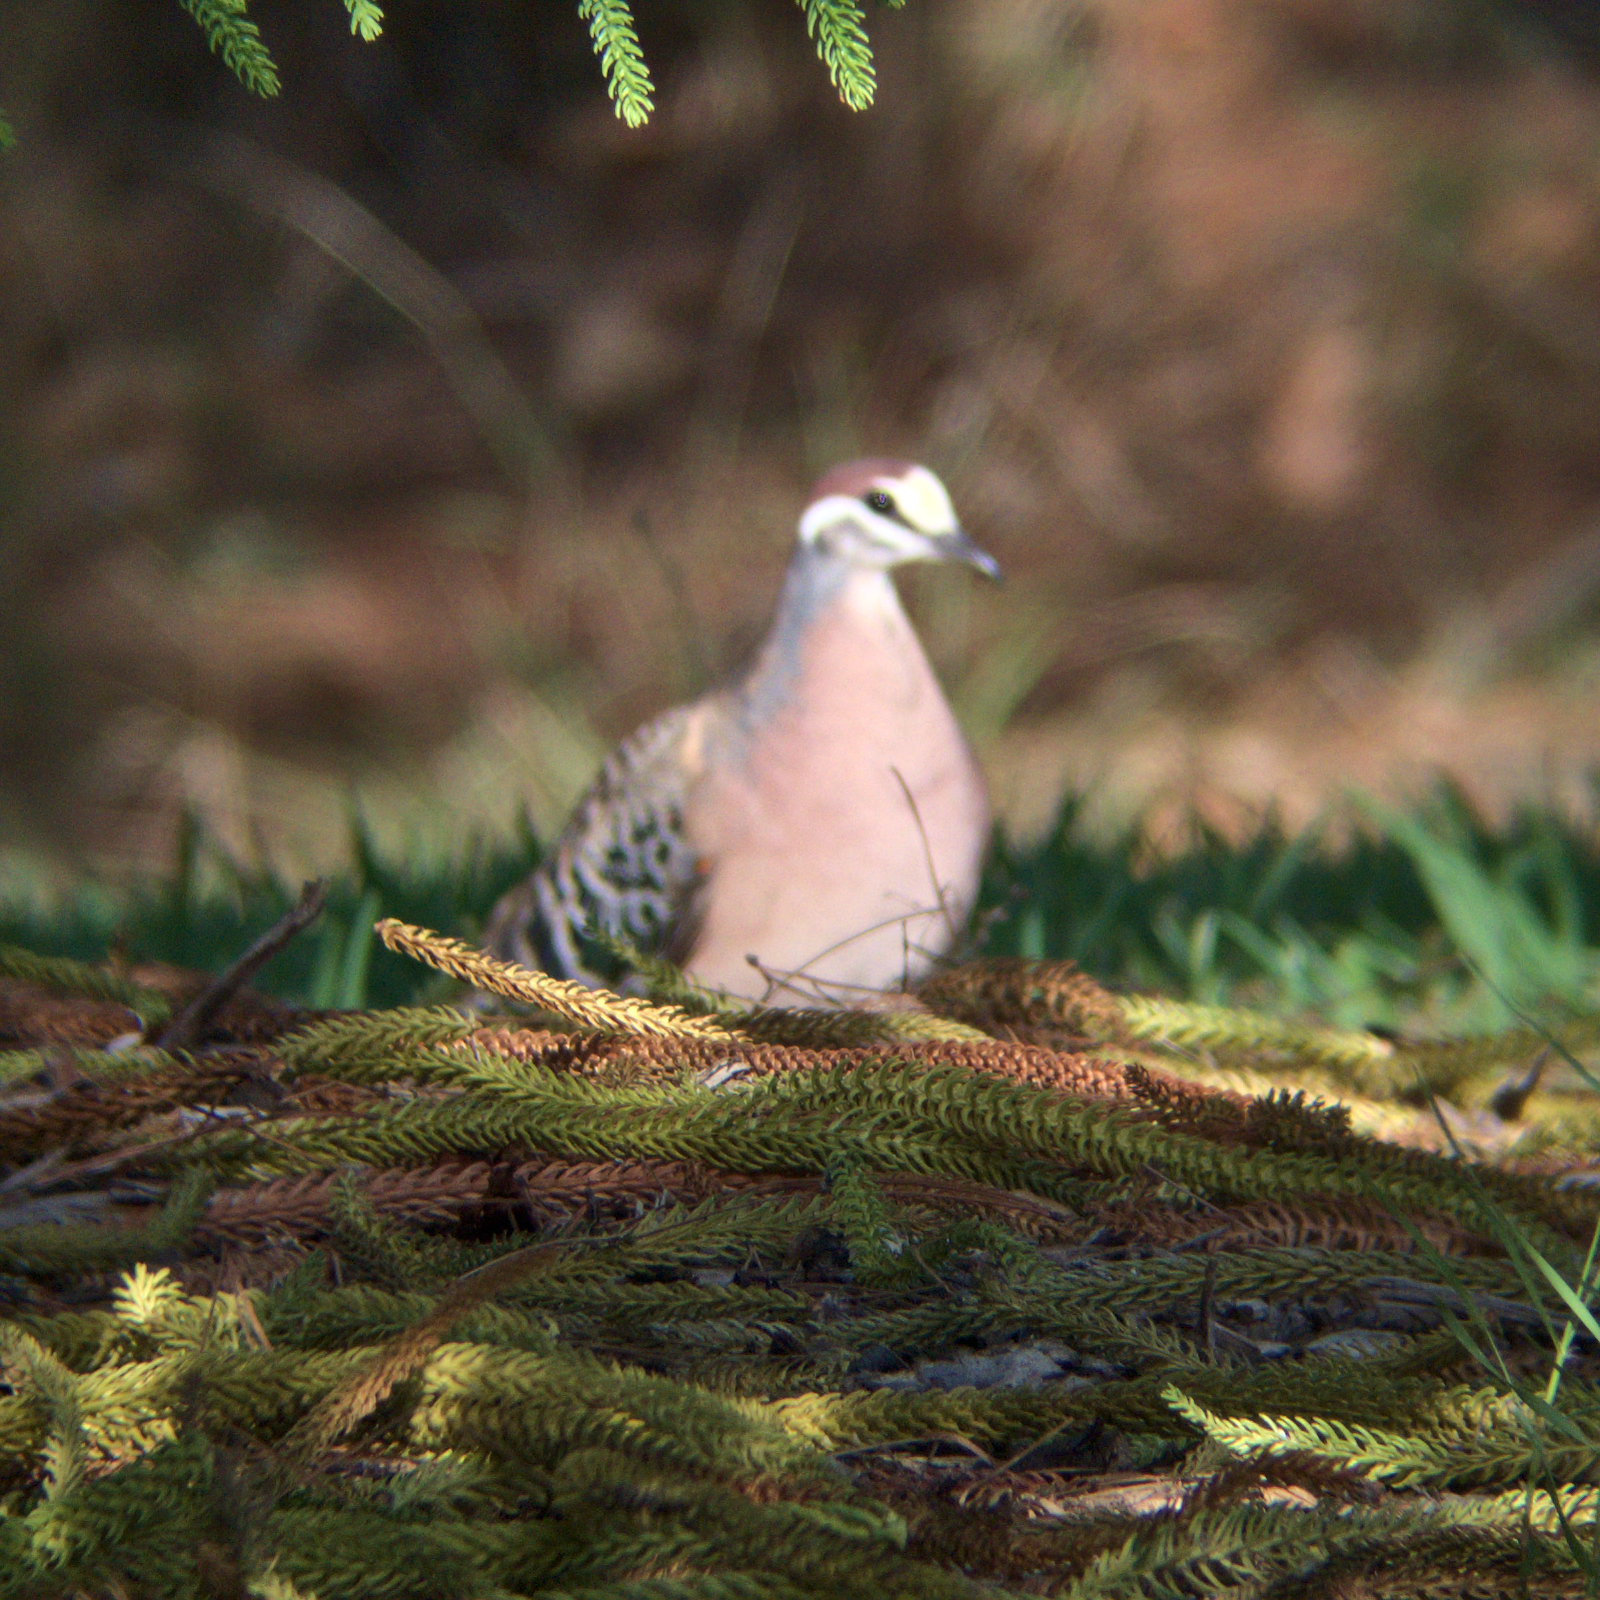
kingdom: Animalia
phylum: Chordata
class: Aves
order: Columbiformes
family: Columbidae
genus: Phaps
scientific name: Phaps chalcoptera
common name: Common bronzewing
